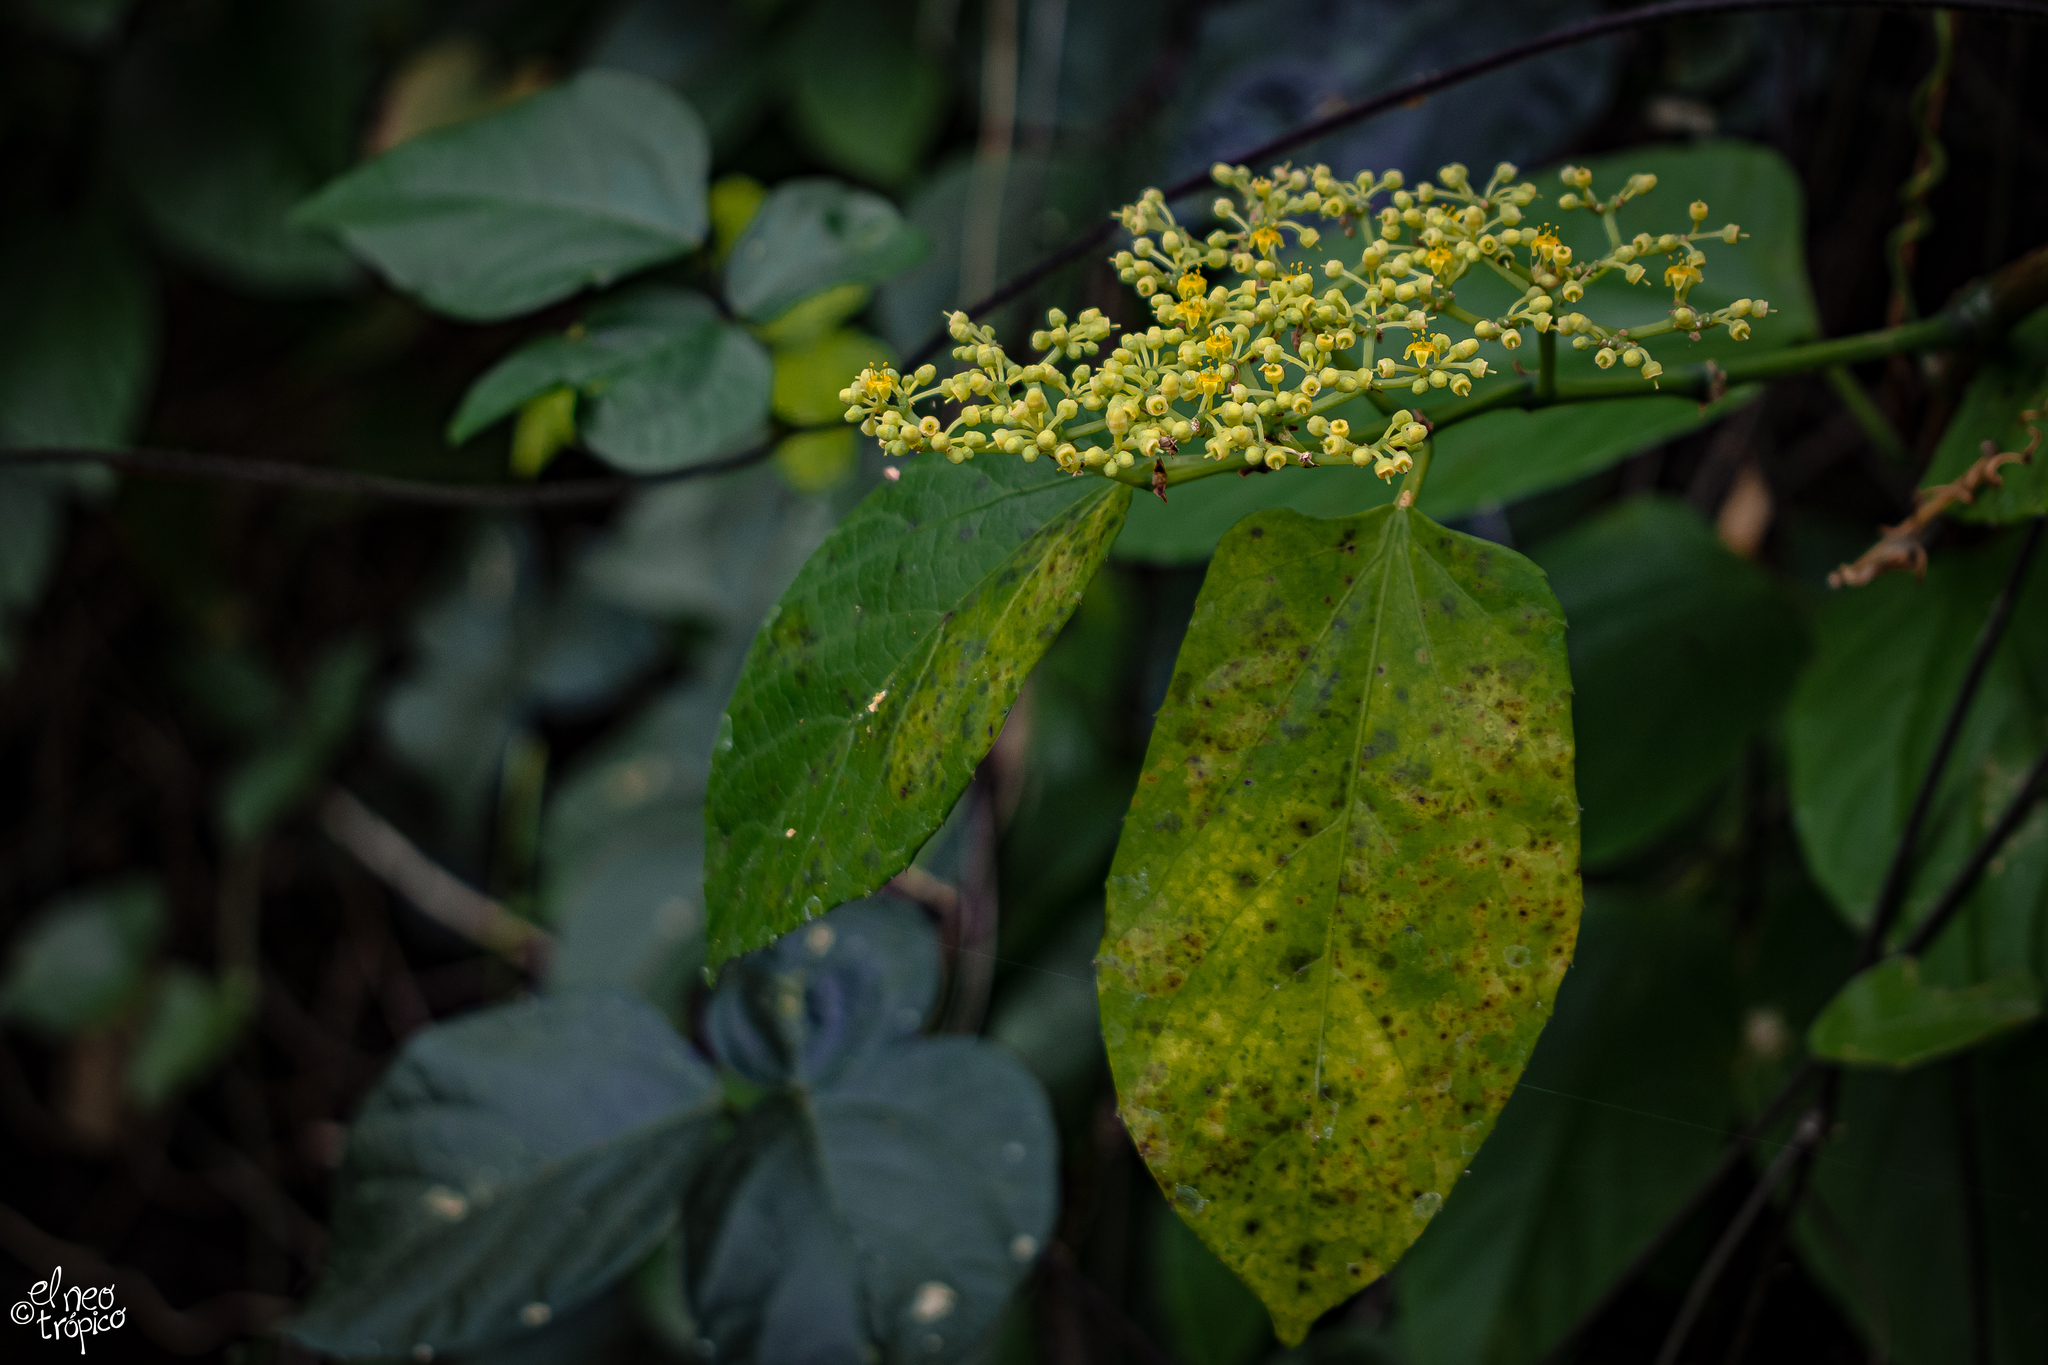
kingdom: Plantae
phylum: Tracheophyta
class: Magnoliopsida
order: Vitales
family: Vitaceae
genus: Cissus
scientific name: Cissus verticillata
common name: Princess vine
